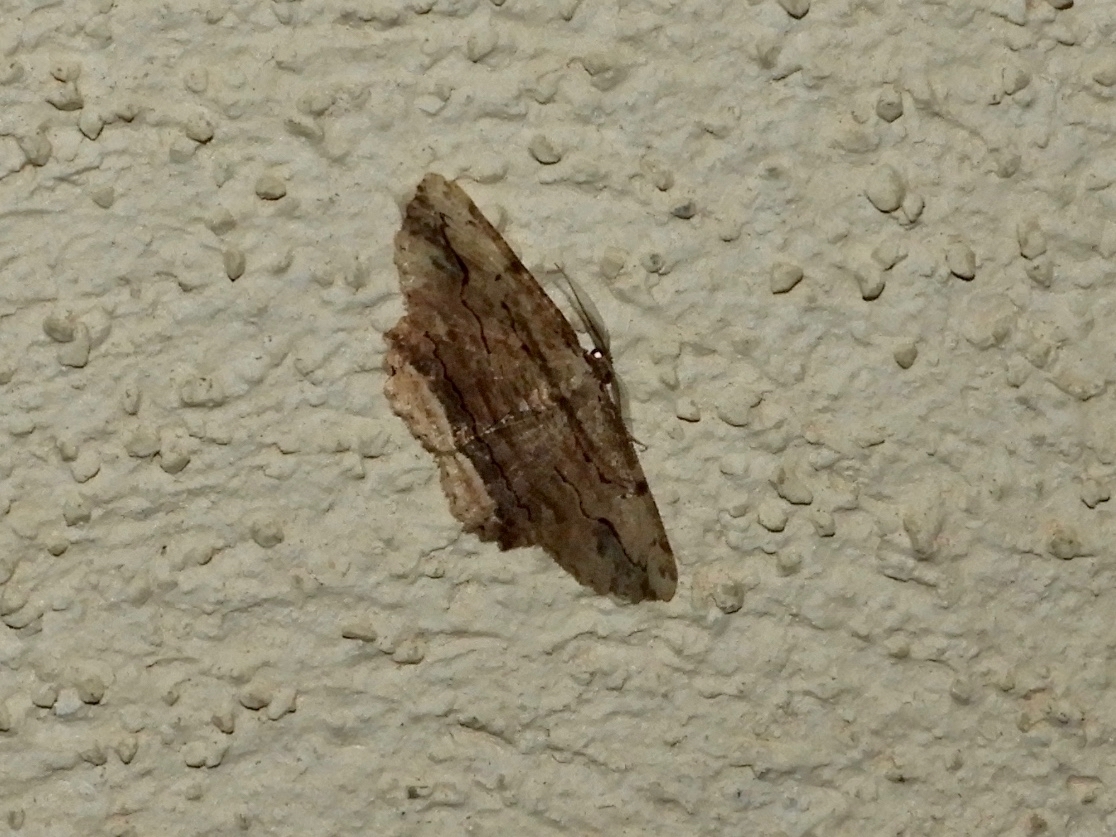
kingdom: Animalia
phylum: Arthropoda
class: Insecta
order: Lepidoptera
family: Geometridae
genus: Menophra
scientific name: Menophra abruptaria
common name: Waved umber
